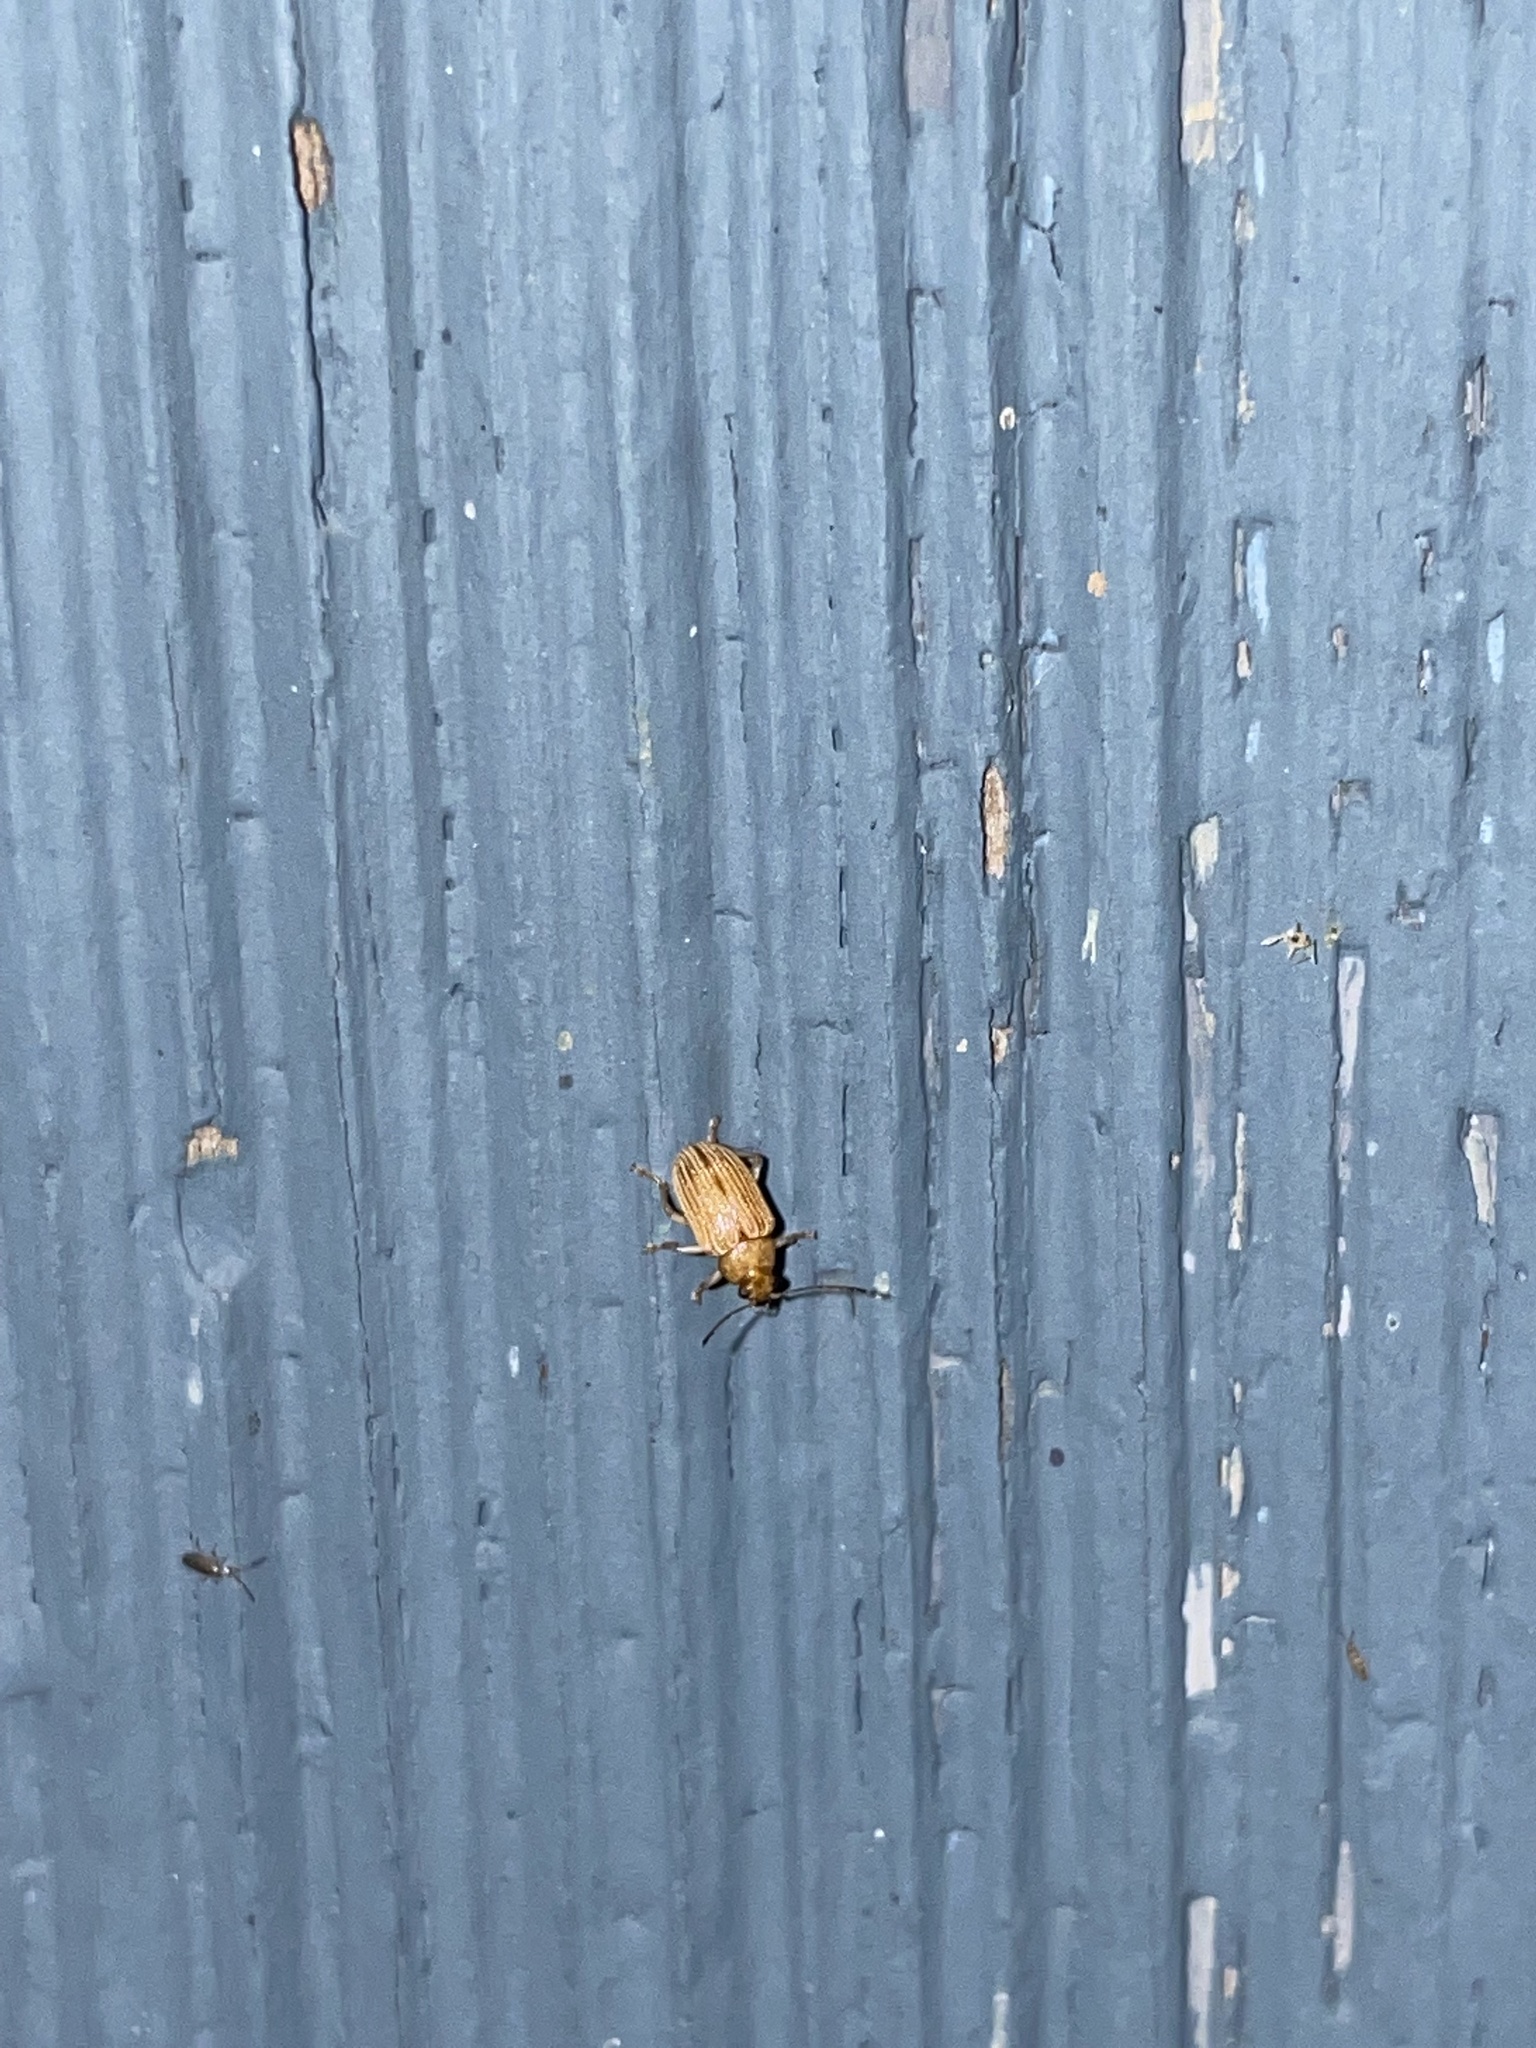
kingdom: Animalia
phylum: Arthropoda
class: Insecta
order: Coleoptera
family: Chrysomelidae
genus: Colaspis
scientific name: Colaspis brunnea
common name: Grape colaspis
